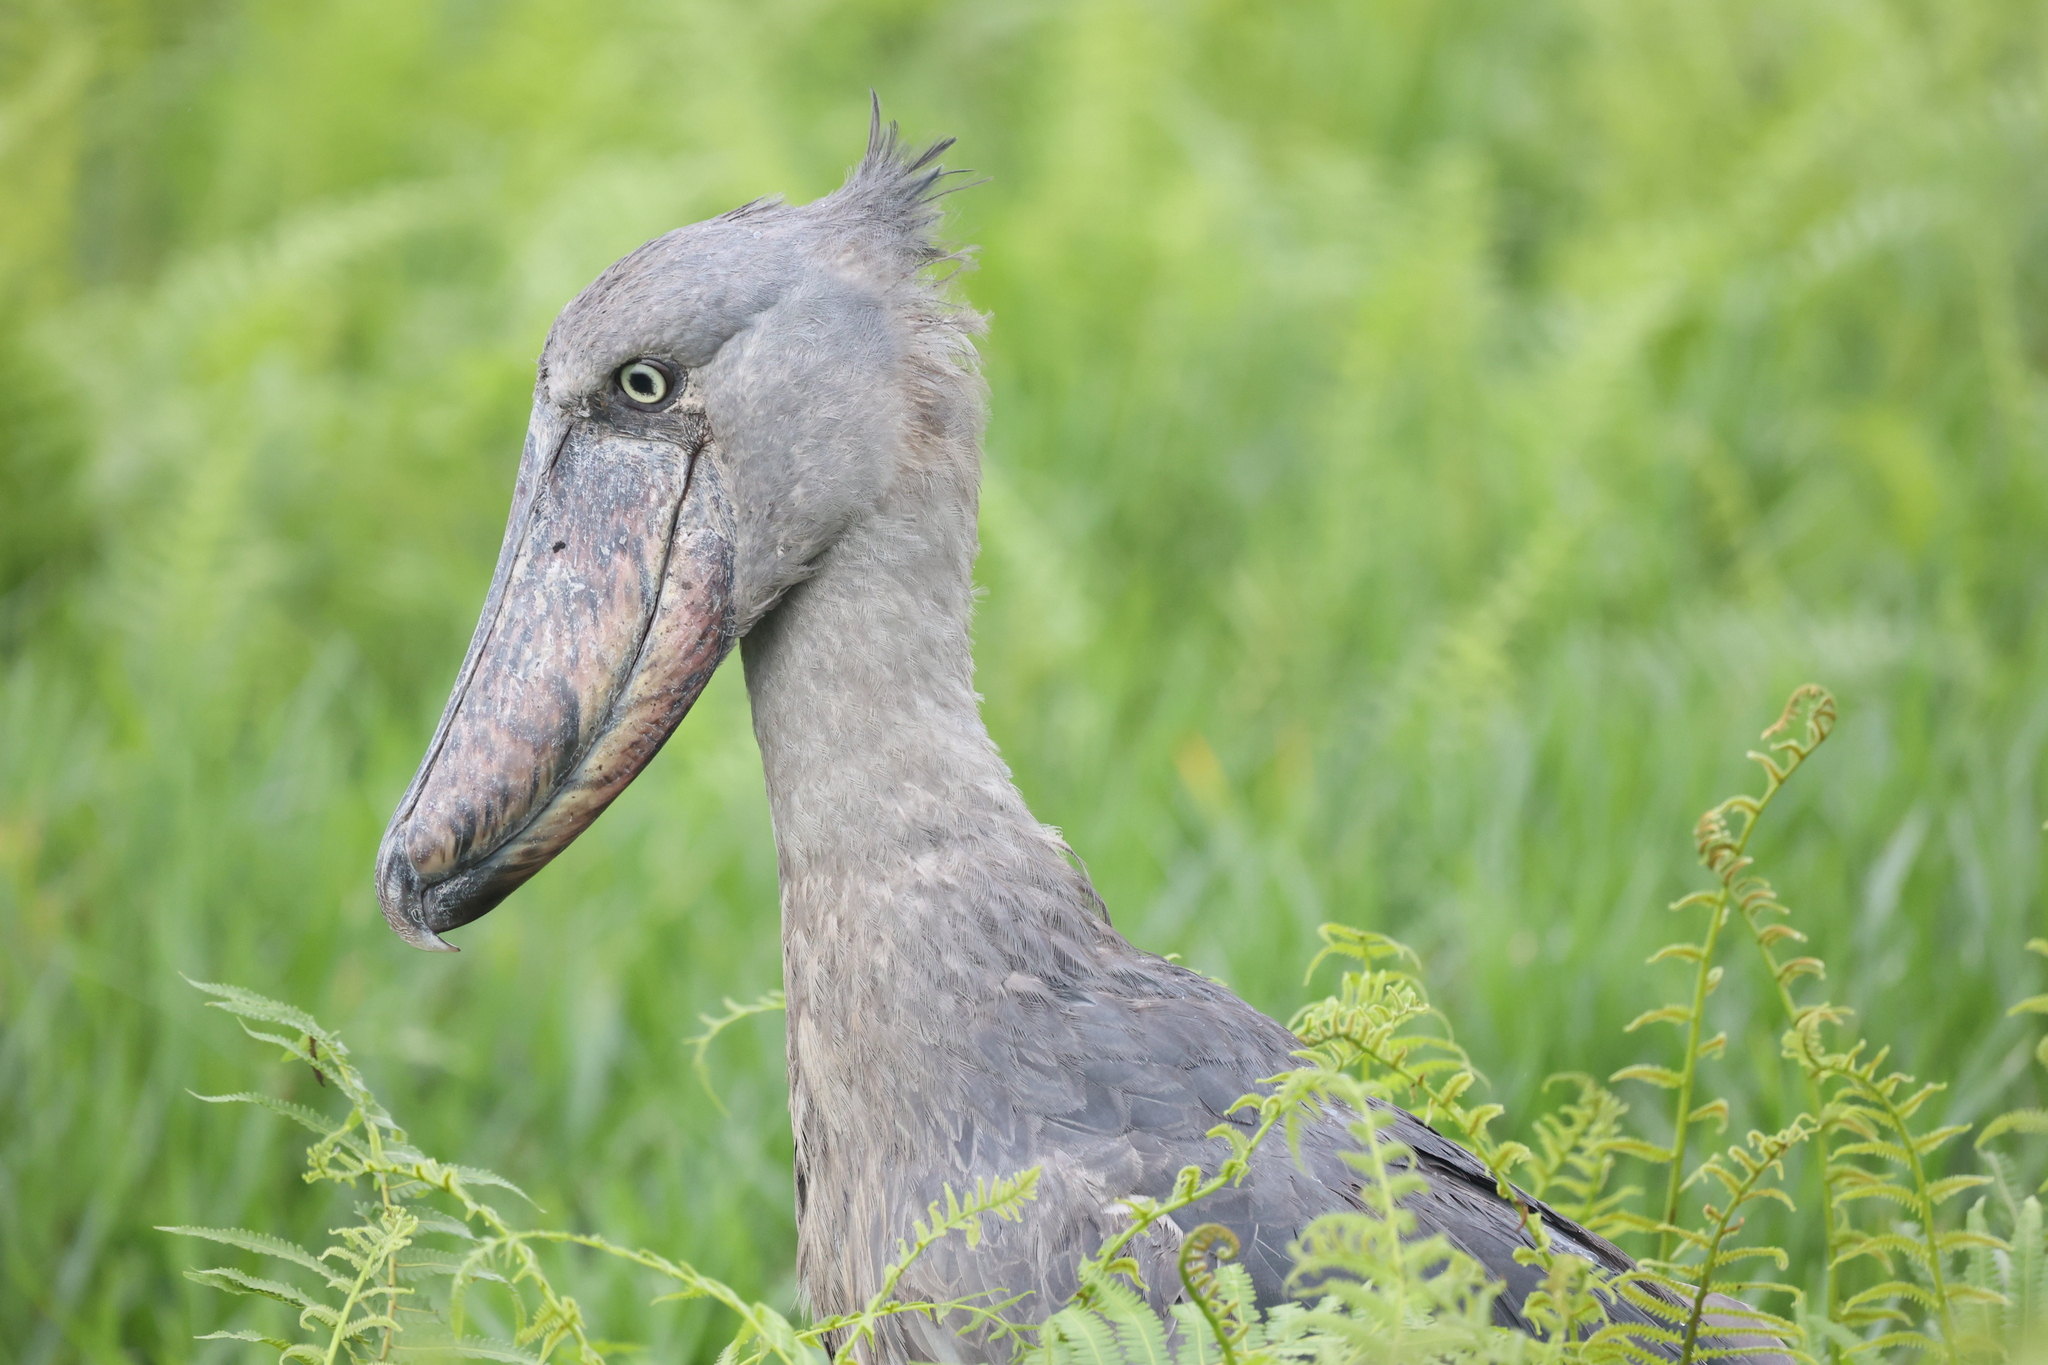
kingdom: Animalia
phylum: Chordata
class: Aves
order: Pelecaniformes
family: Balaenicipitidae
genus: Balaeniceps
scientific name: Balaeniceps rex
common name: Shoebill
